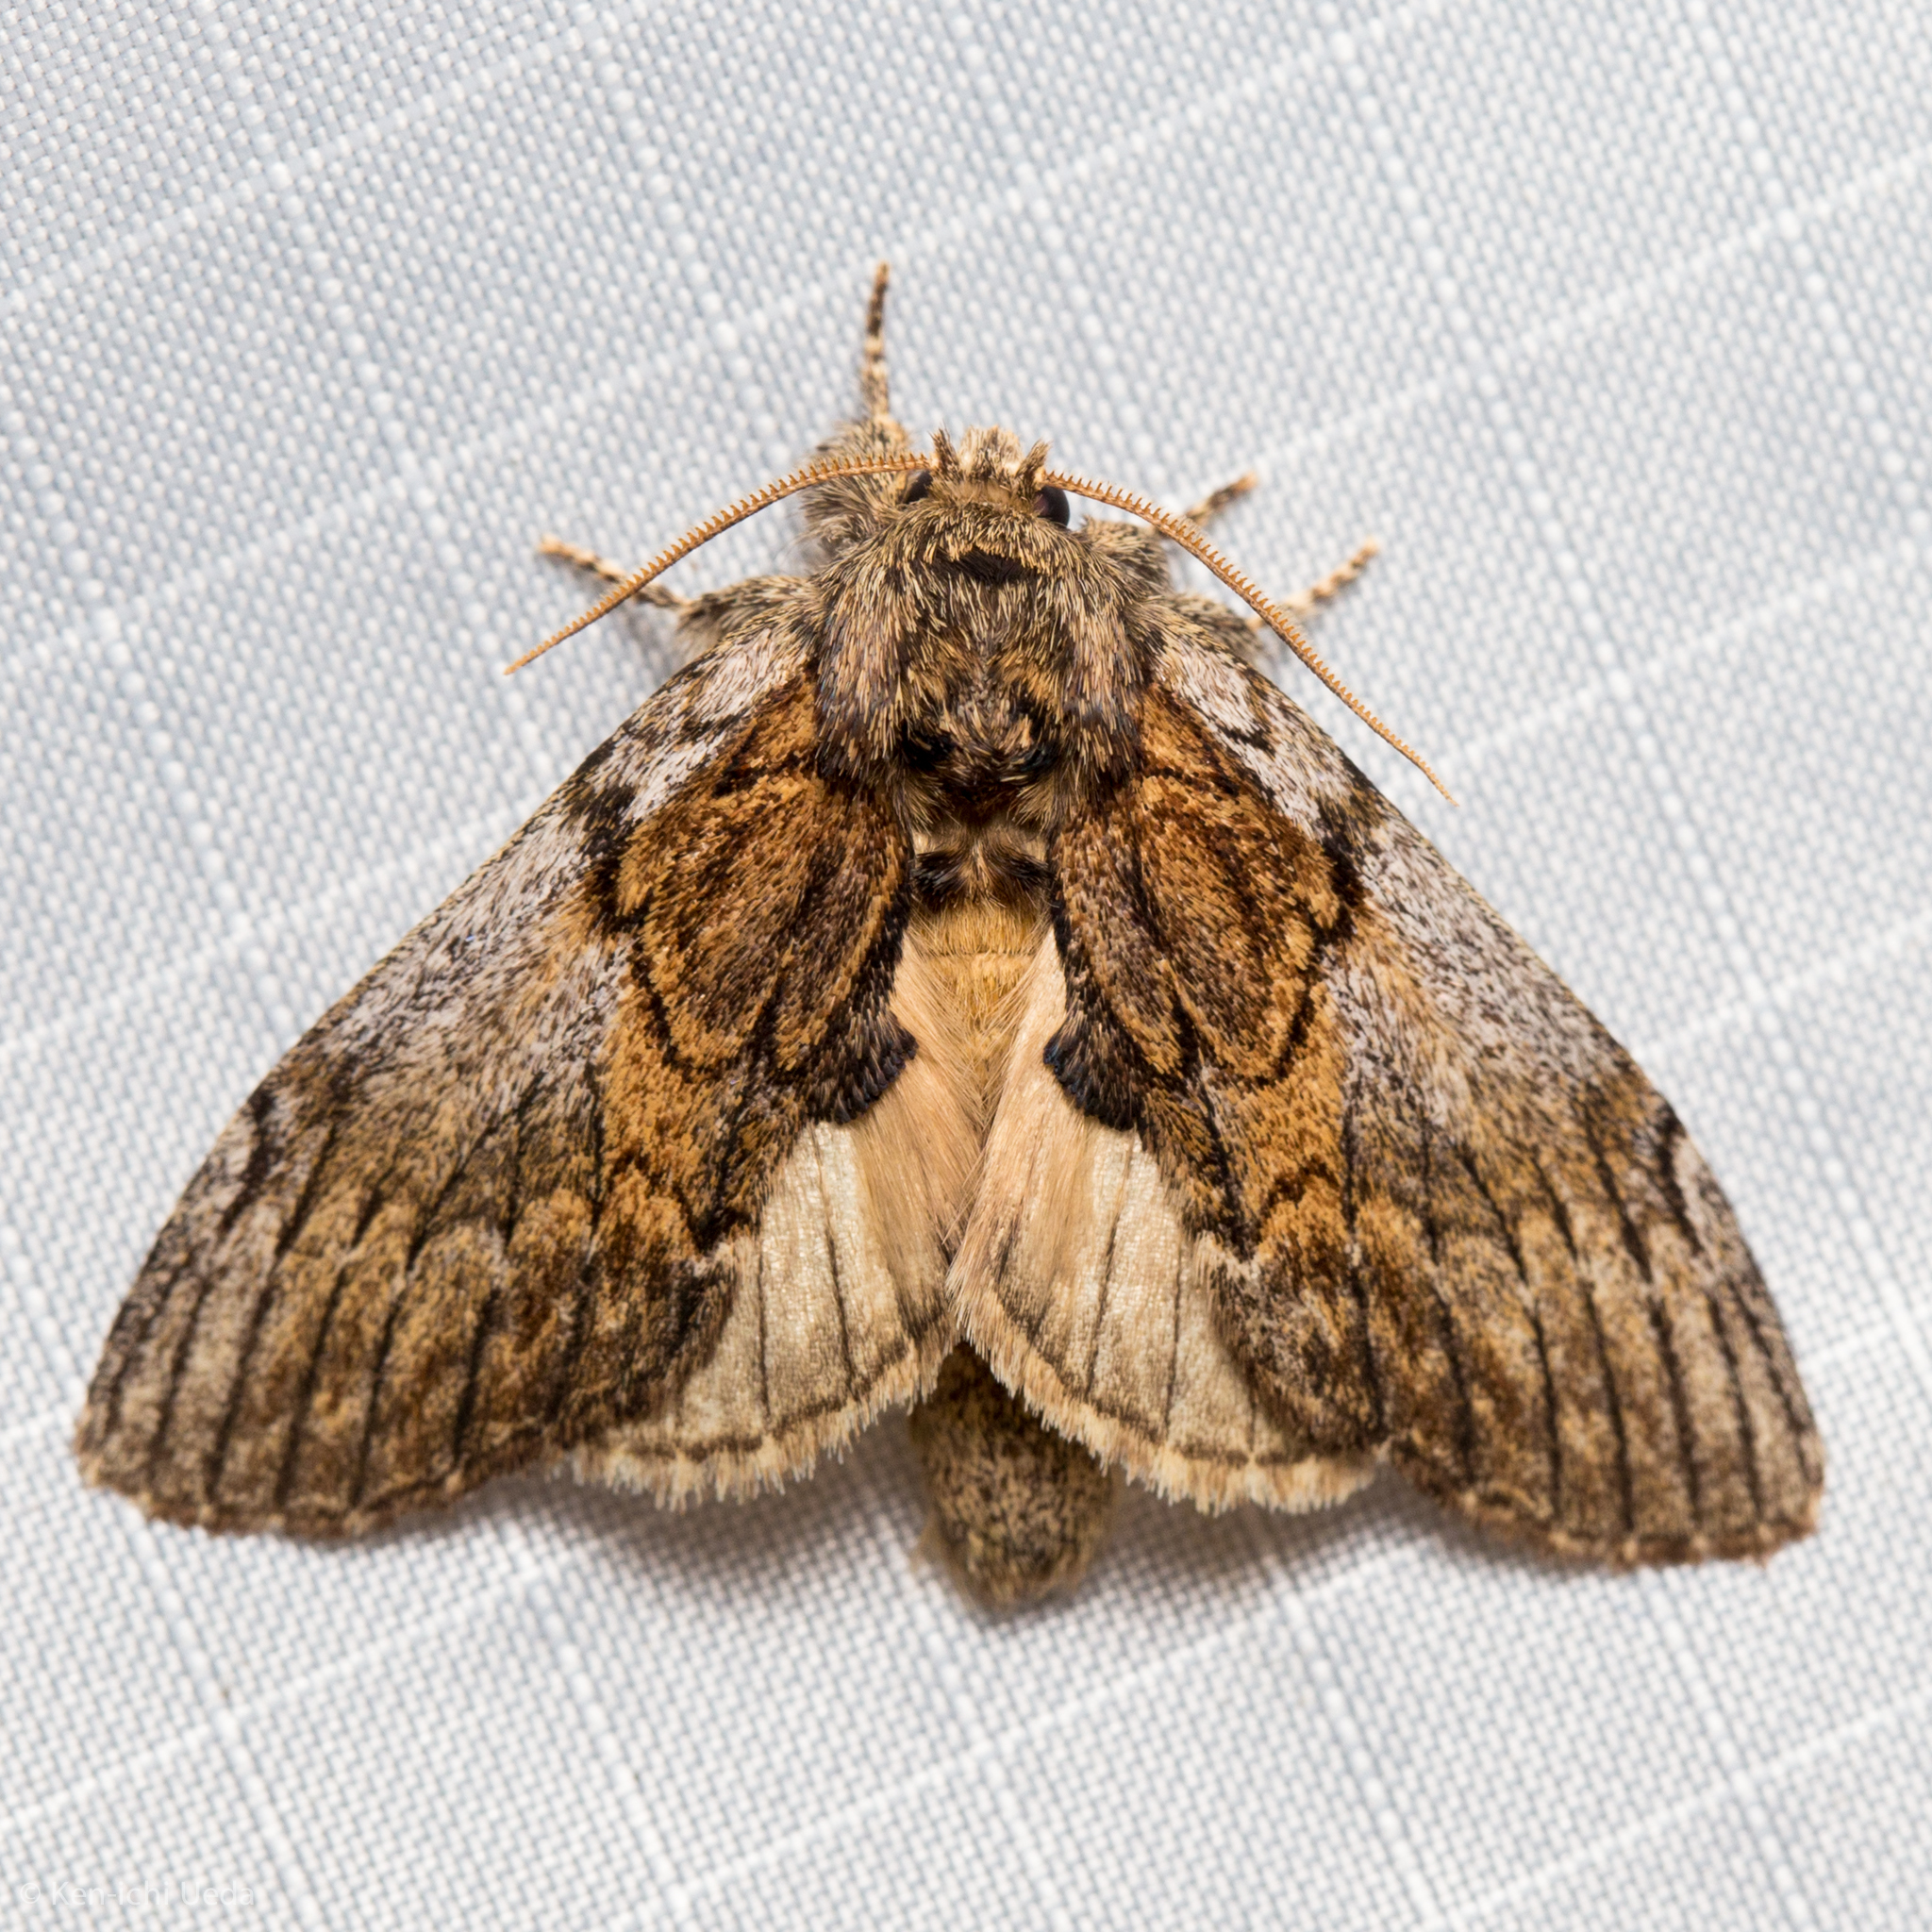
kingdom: Animalia
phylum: Arthropoda
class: Insecta
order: Lepidoptera
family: Notodontidae
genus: Peridea
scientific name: Peridea basitriens
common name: Oval-based prominent
